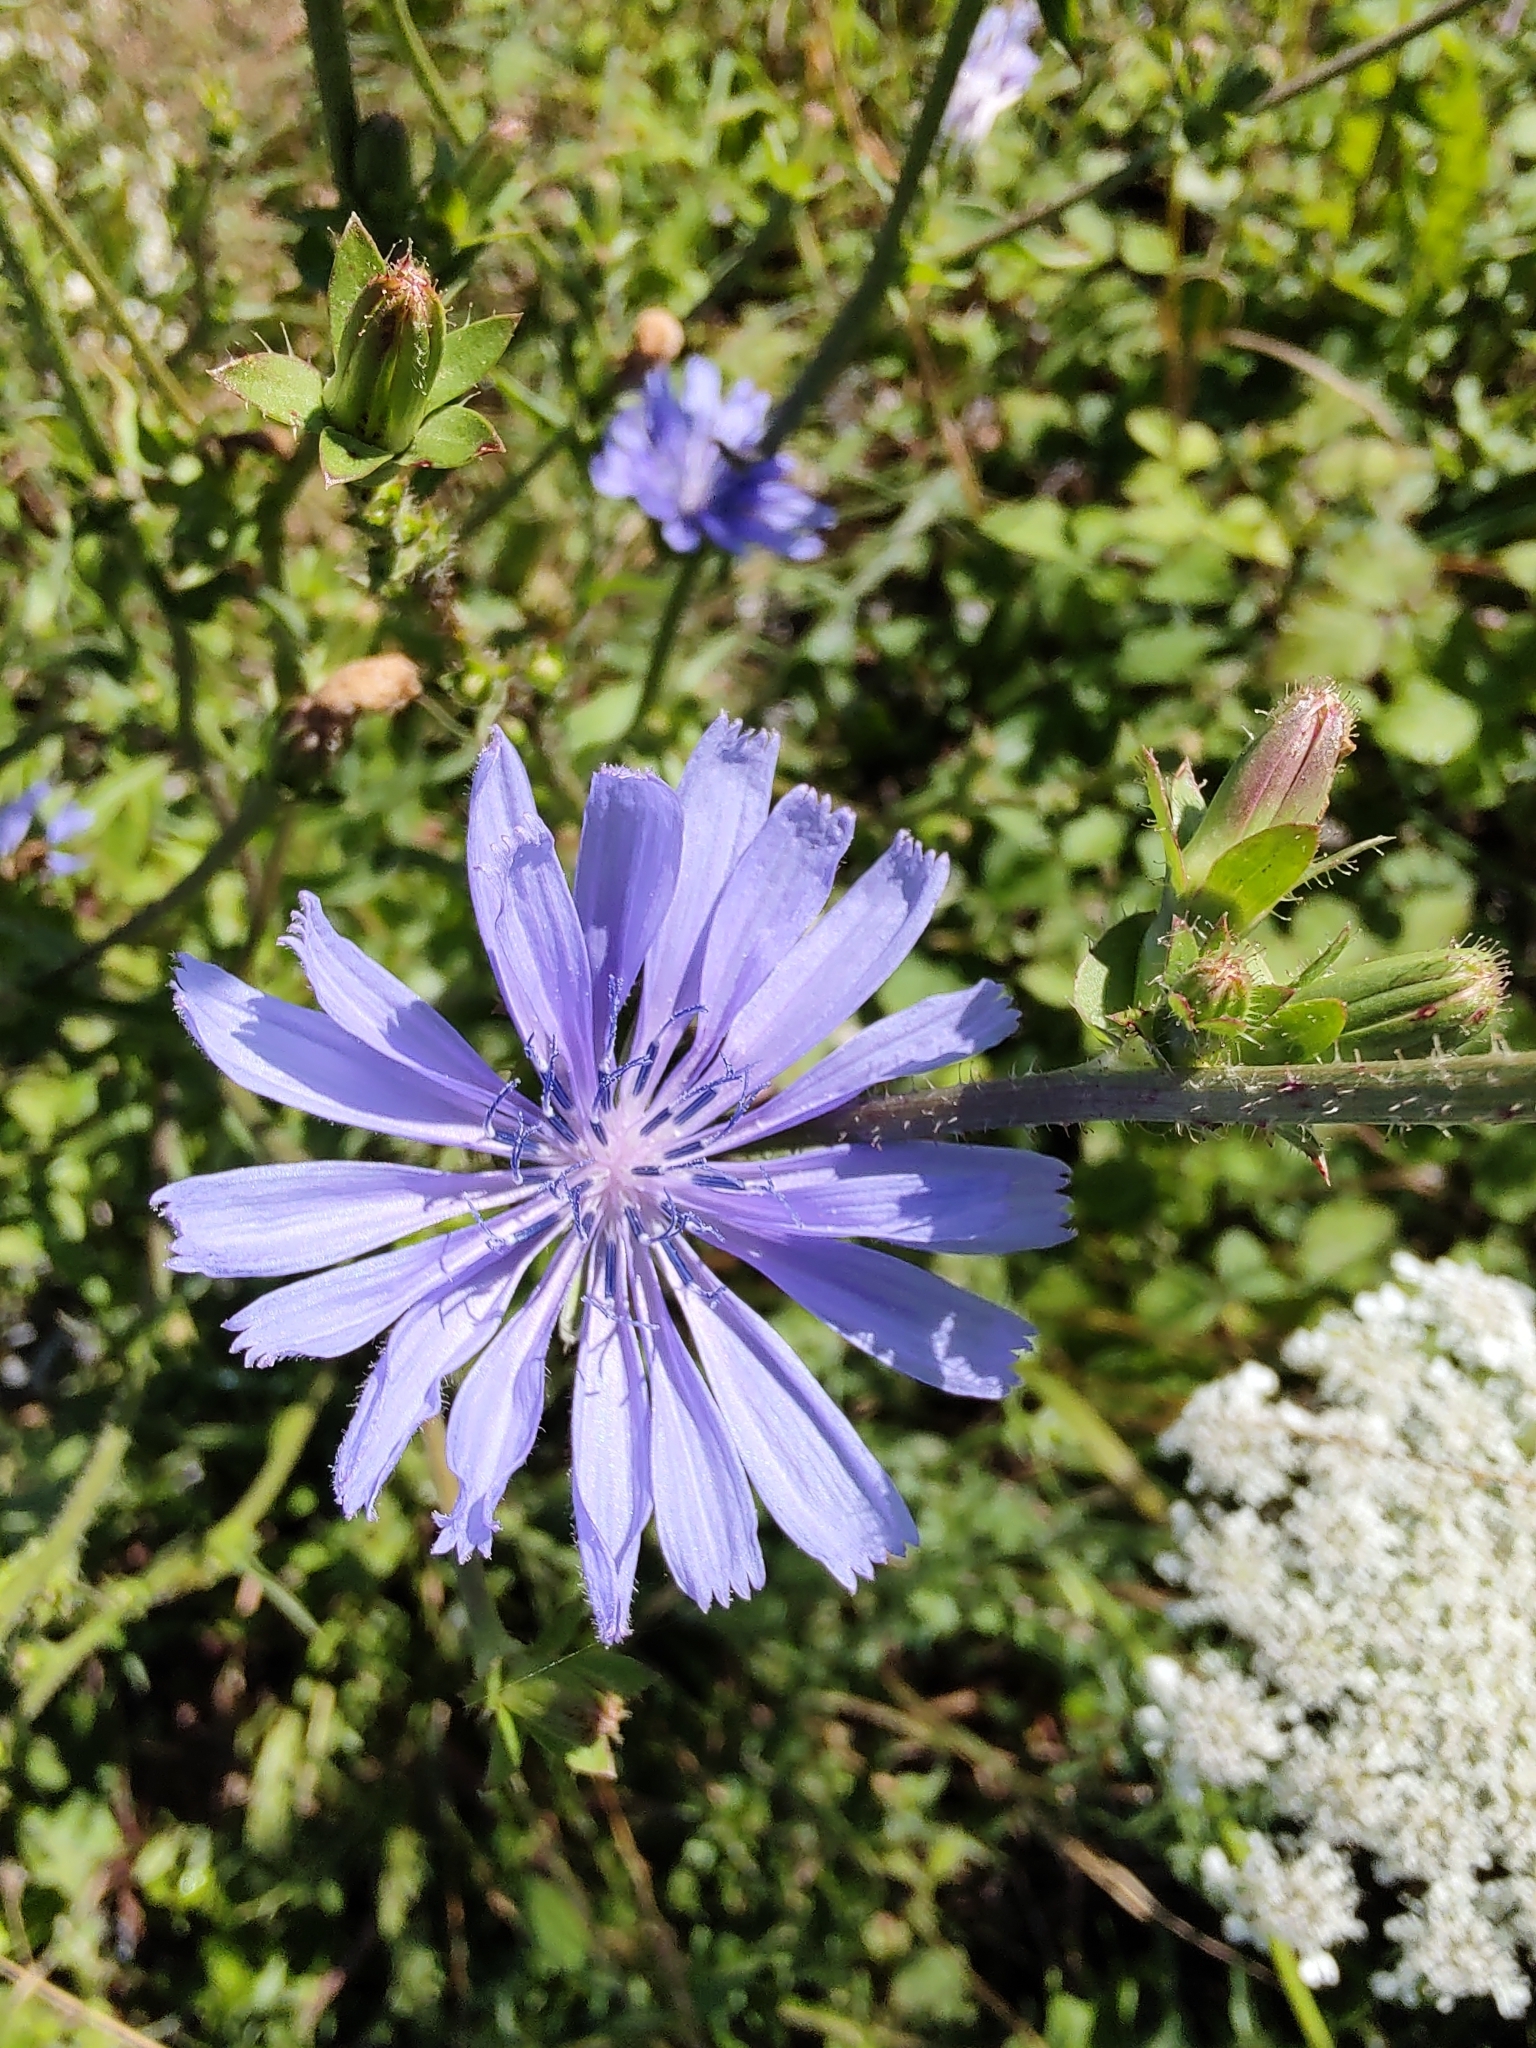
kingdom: Plantae
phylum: Tracheophyta
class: Magnoliopsida
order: Asterales
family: Asteraceae
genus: Cichorium
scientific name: Cichorium intybus
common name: Chicory
